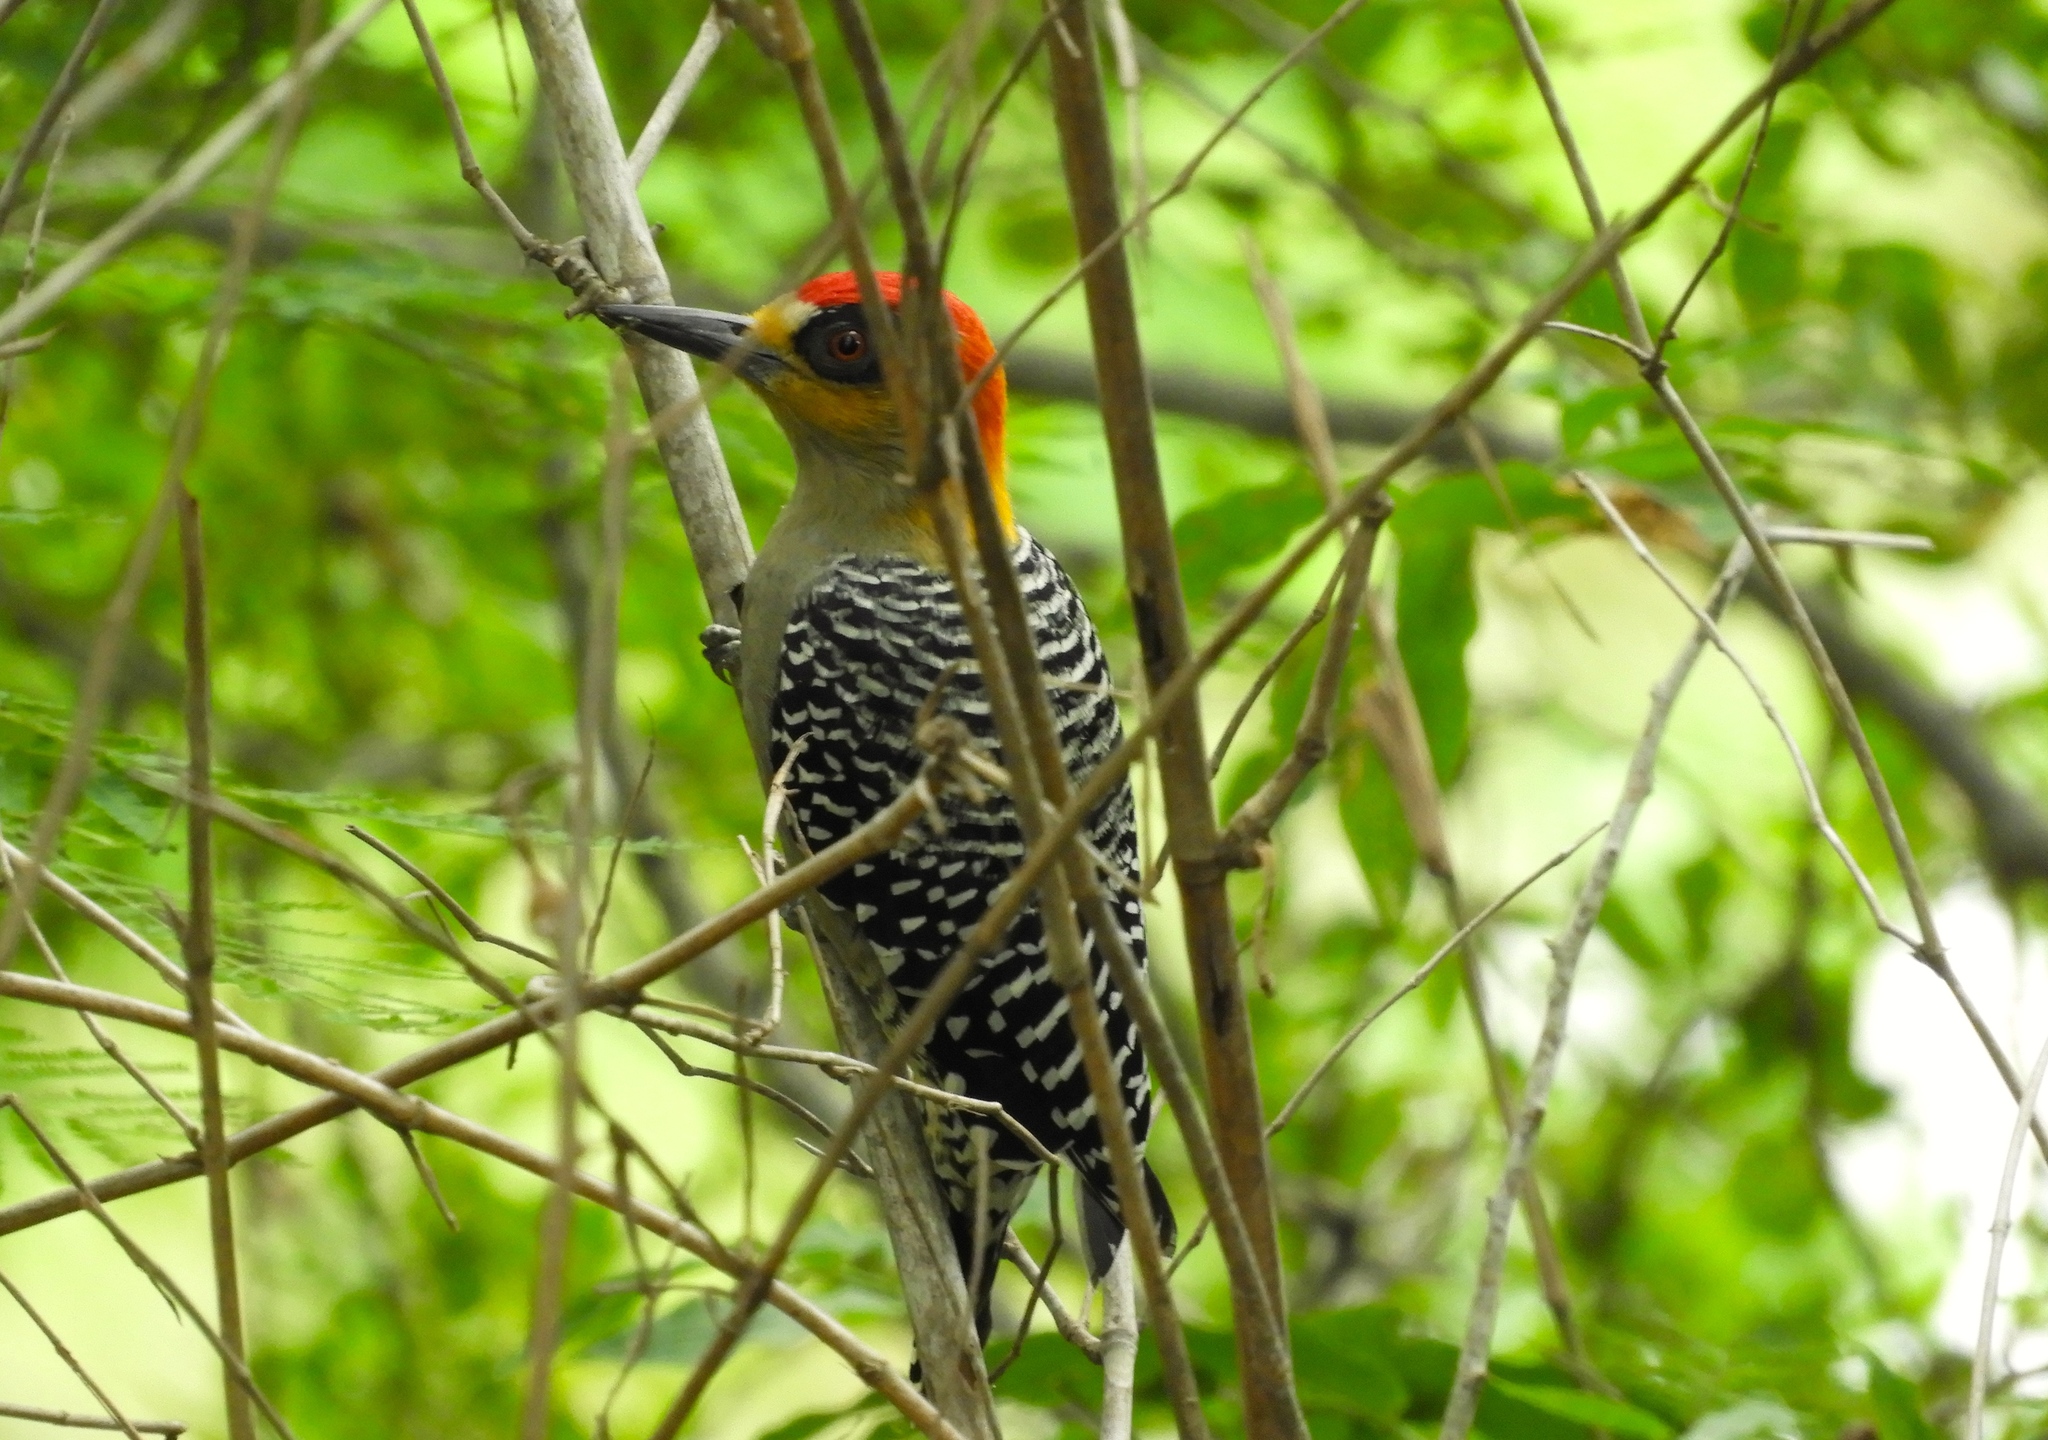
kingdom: Animalia
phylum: Chordata
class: Aves
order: Piciformes
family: Picidae
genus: Melanerpes
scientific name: Melanerpes chrysogenys
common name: Golden-cheeked woodpecker
